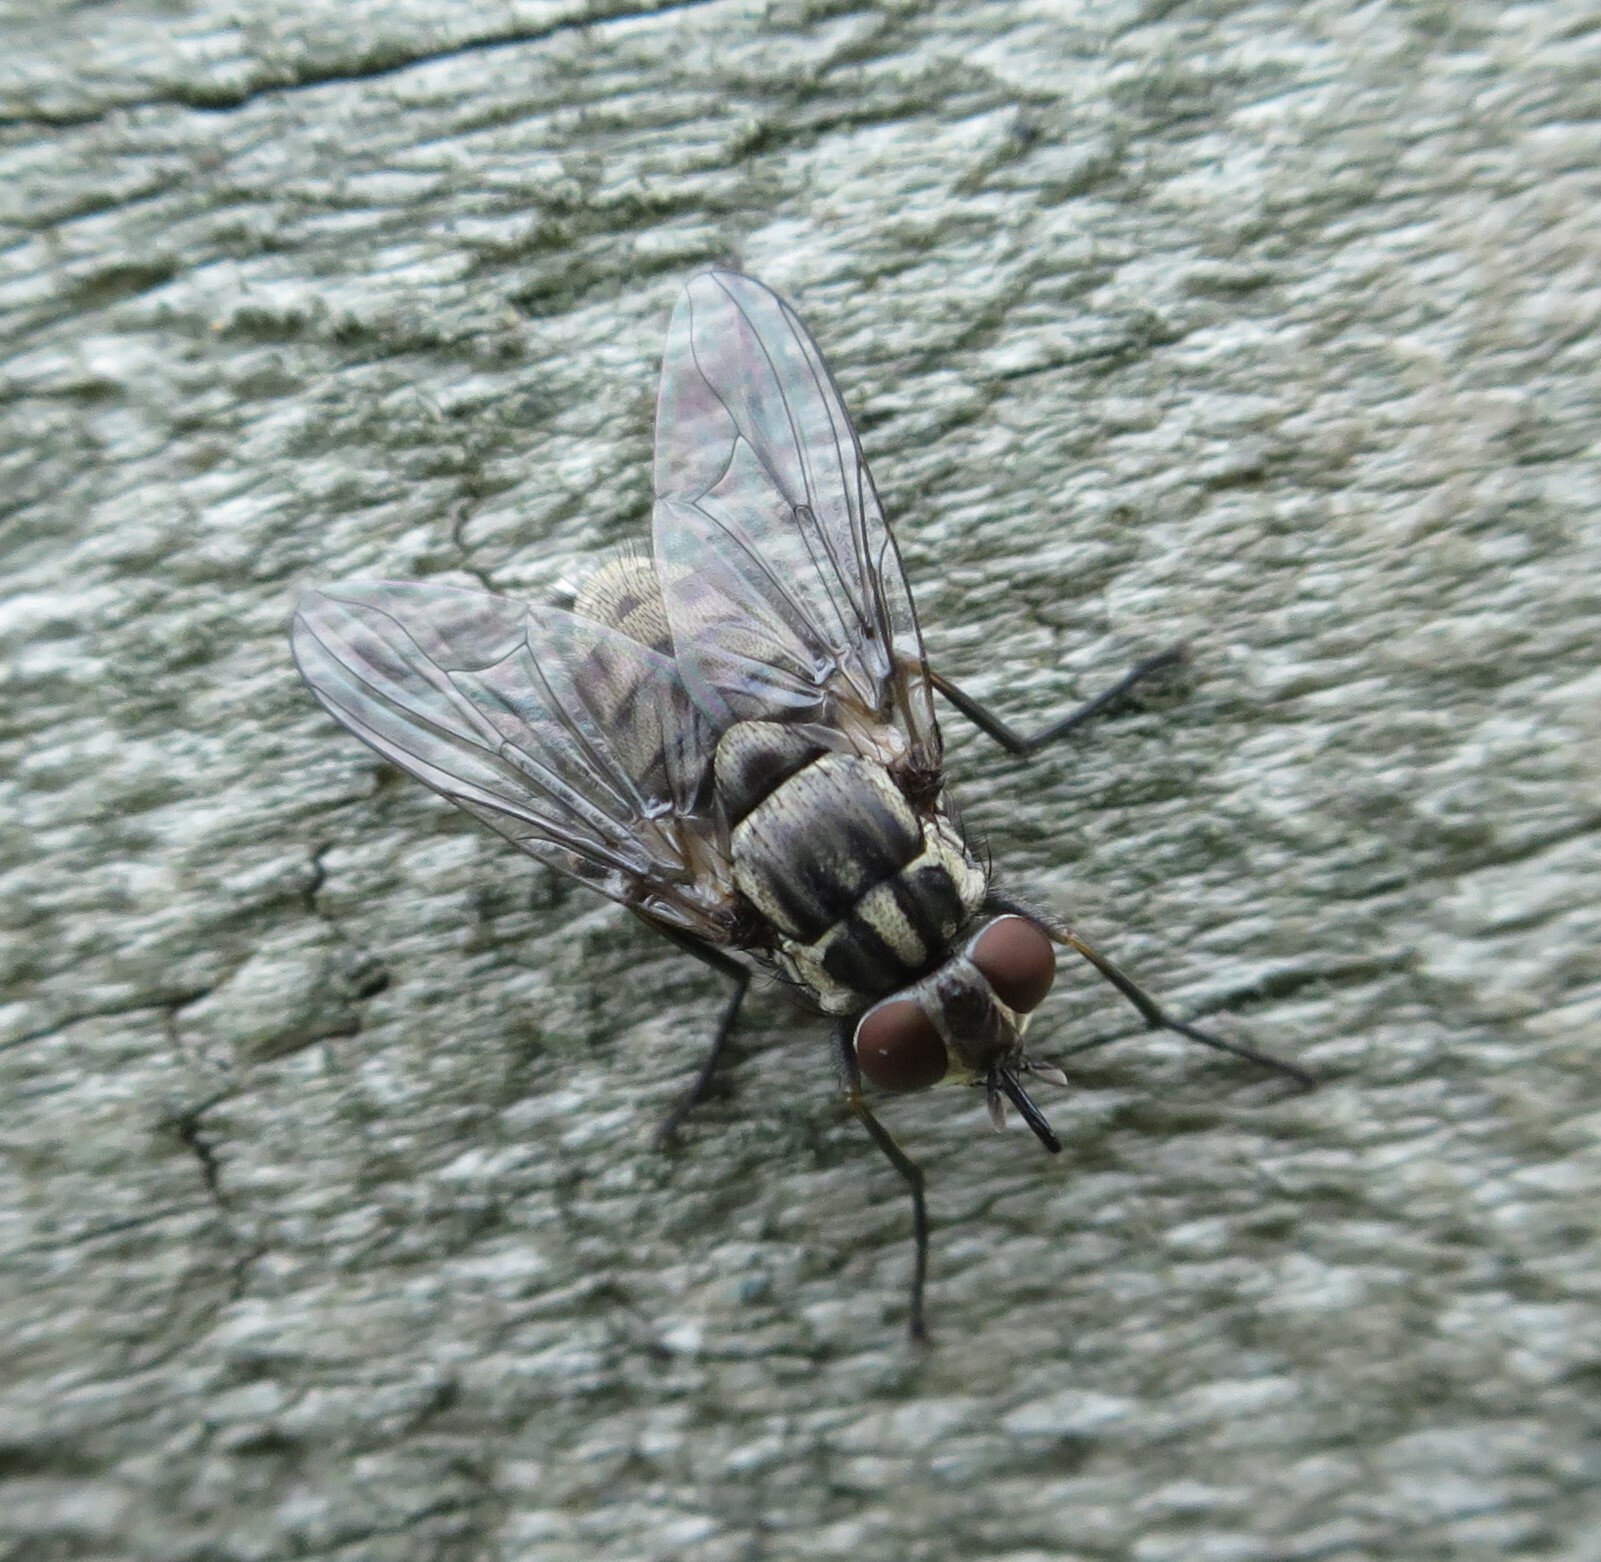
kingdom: Animalia
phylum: Arthropoda
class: Insecta
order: Diptera
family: Muscidae
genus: Stomoxys
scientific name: Stomoxys calcitrans
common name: Stable fly
